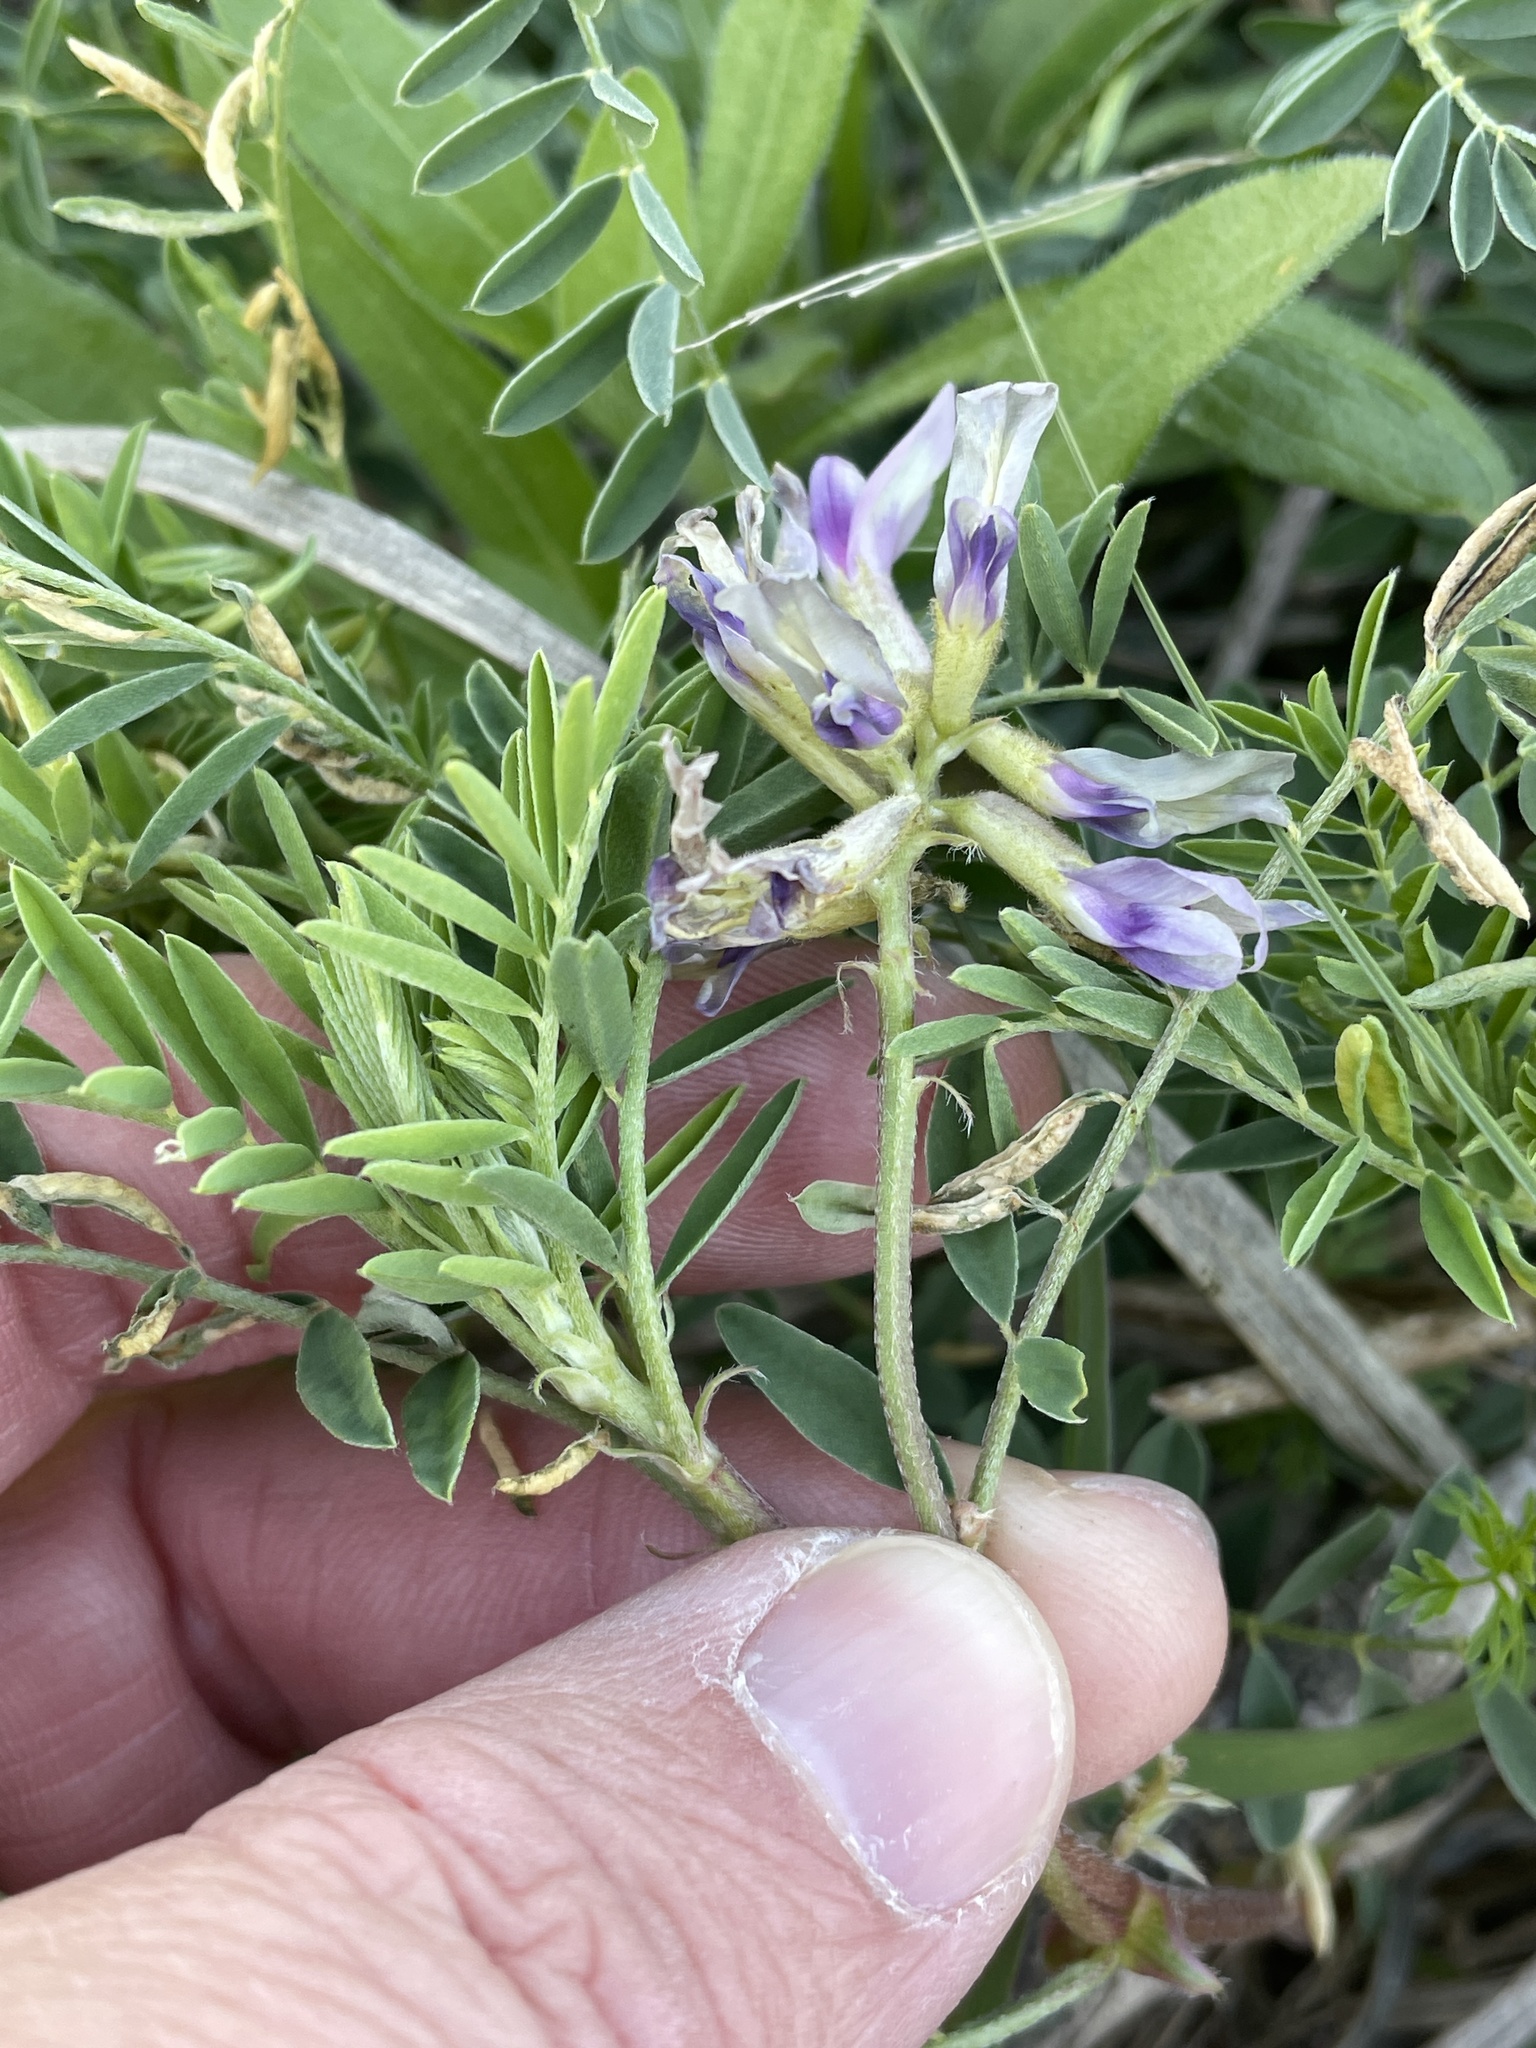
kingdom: Plantae
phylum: Tracheophyta
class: Magnoliopsida
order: Fabales
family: Fabaceae
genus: Astragalus
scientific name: Astragalus crassicarpus
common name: Ground-plum milk-vetch
